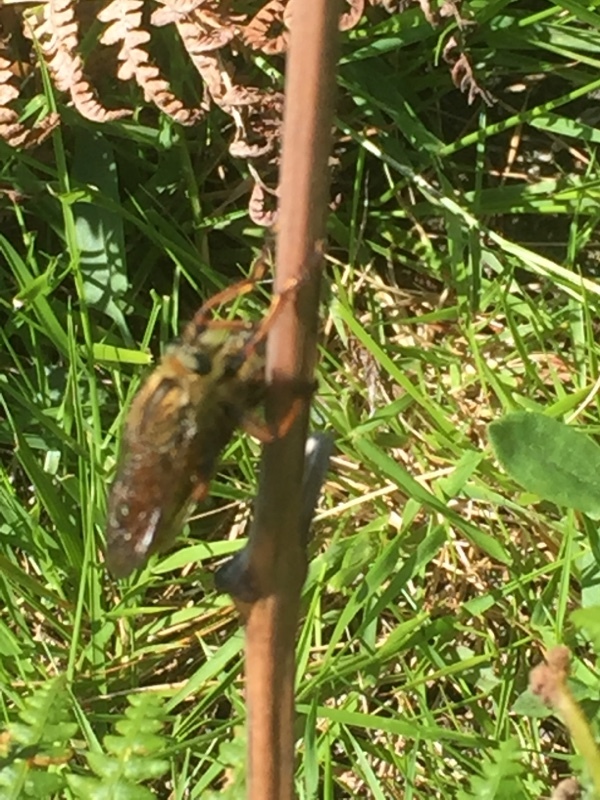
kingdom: Animalia
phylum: Arthropoda
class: Insecta
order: Diptera
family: Asilidae
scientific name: Asilidae
